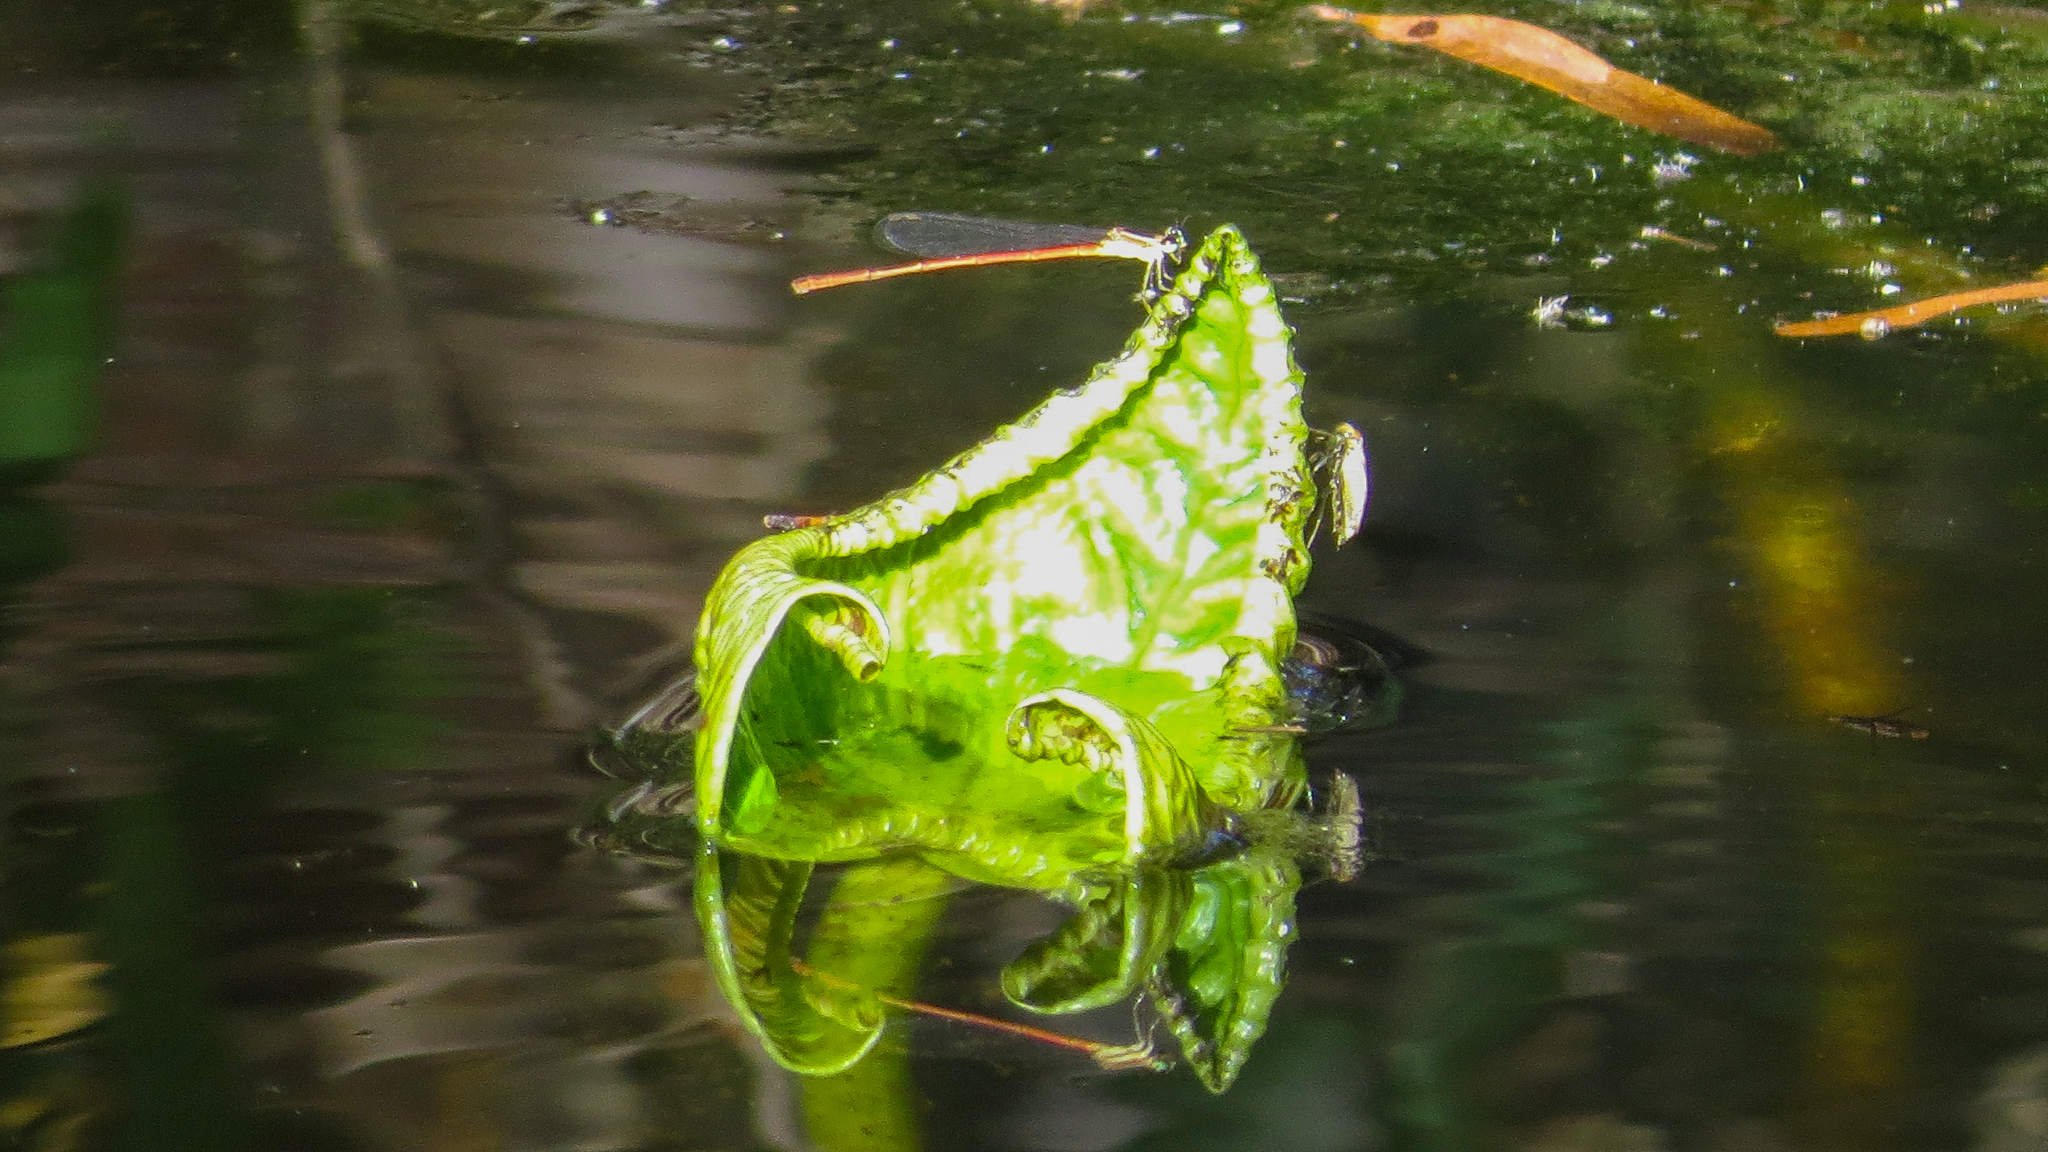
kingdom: Animalia
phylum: Arthropoda
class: Insecta
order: Odonata
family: Coenagrionidae
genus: Argiocnemis
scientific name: Argiocnemis rubescens
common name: Red-tipped shadefly
